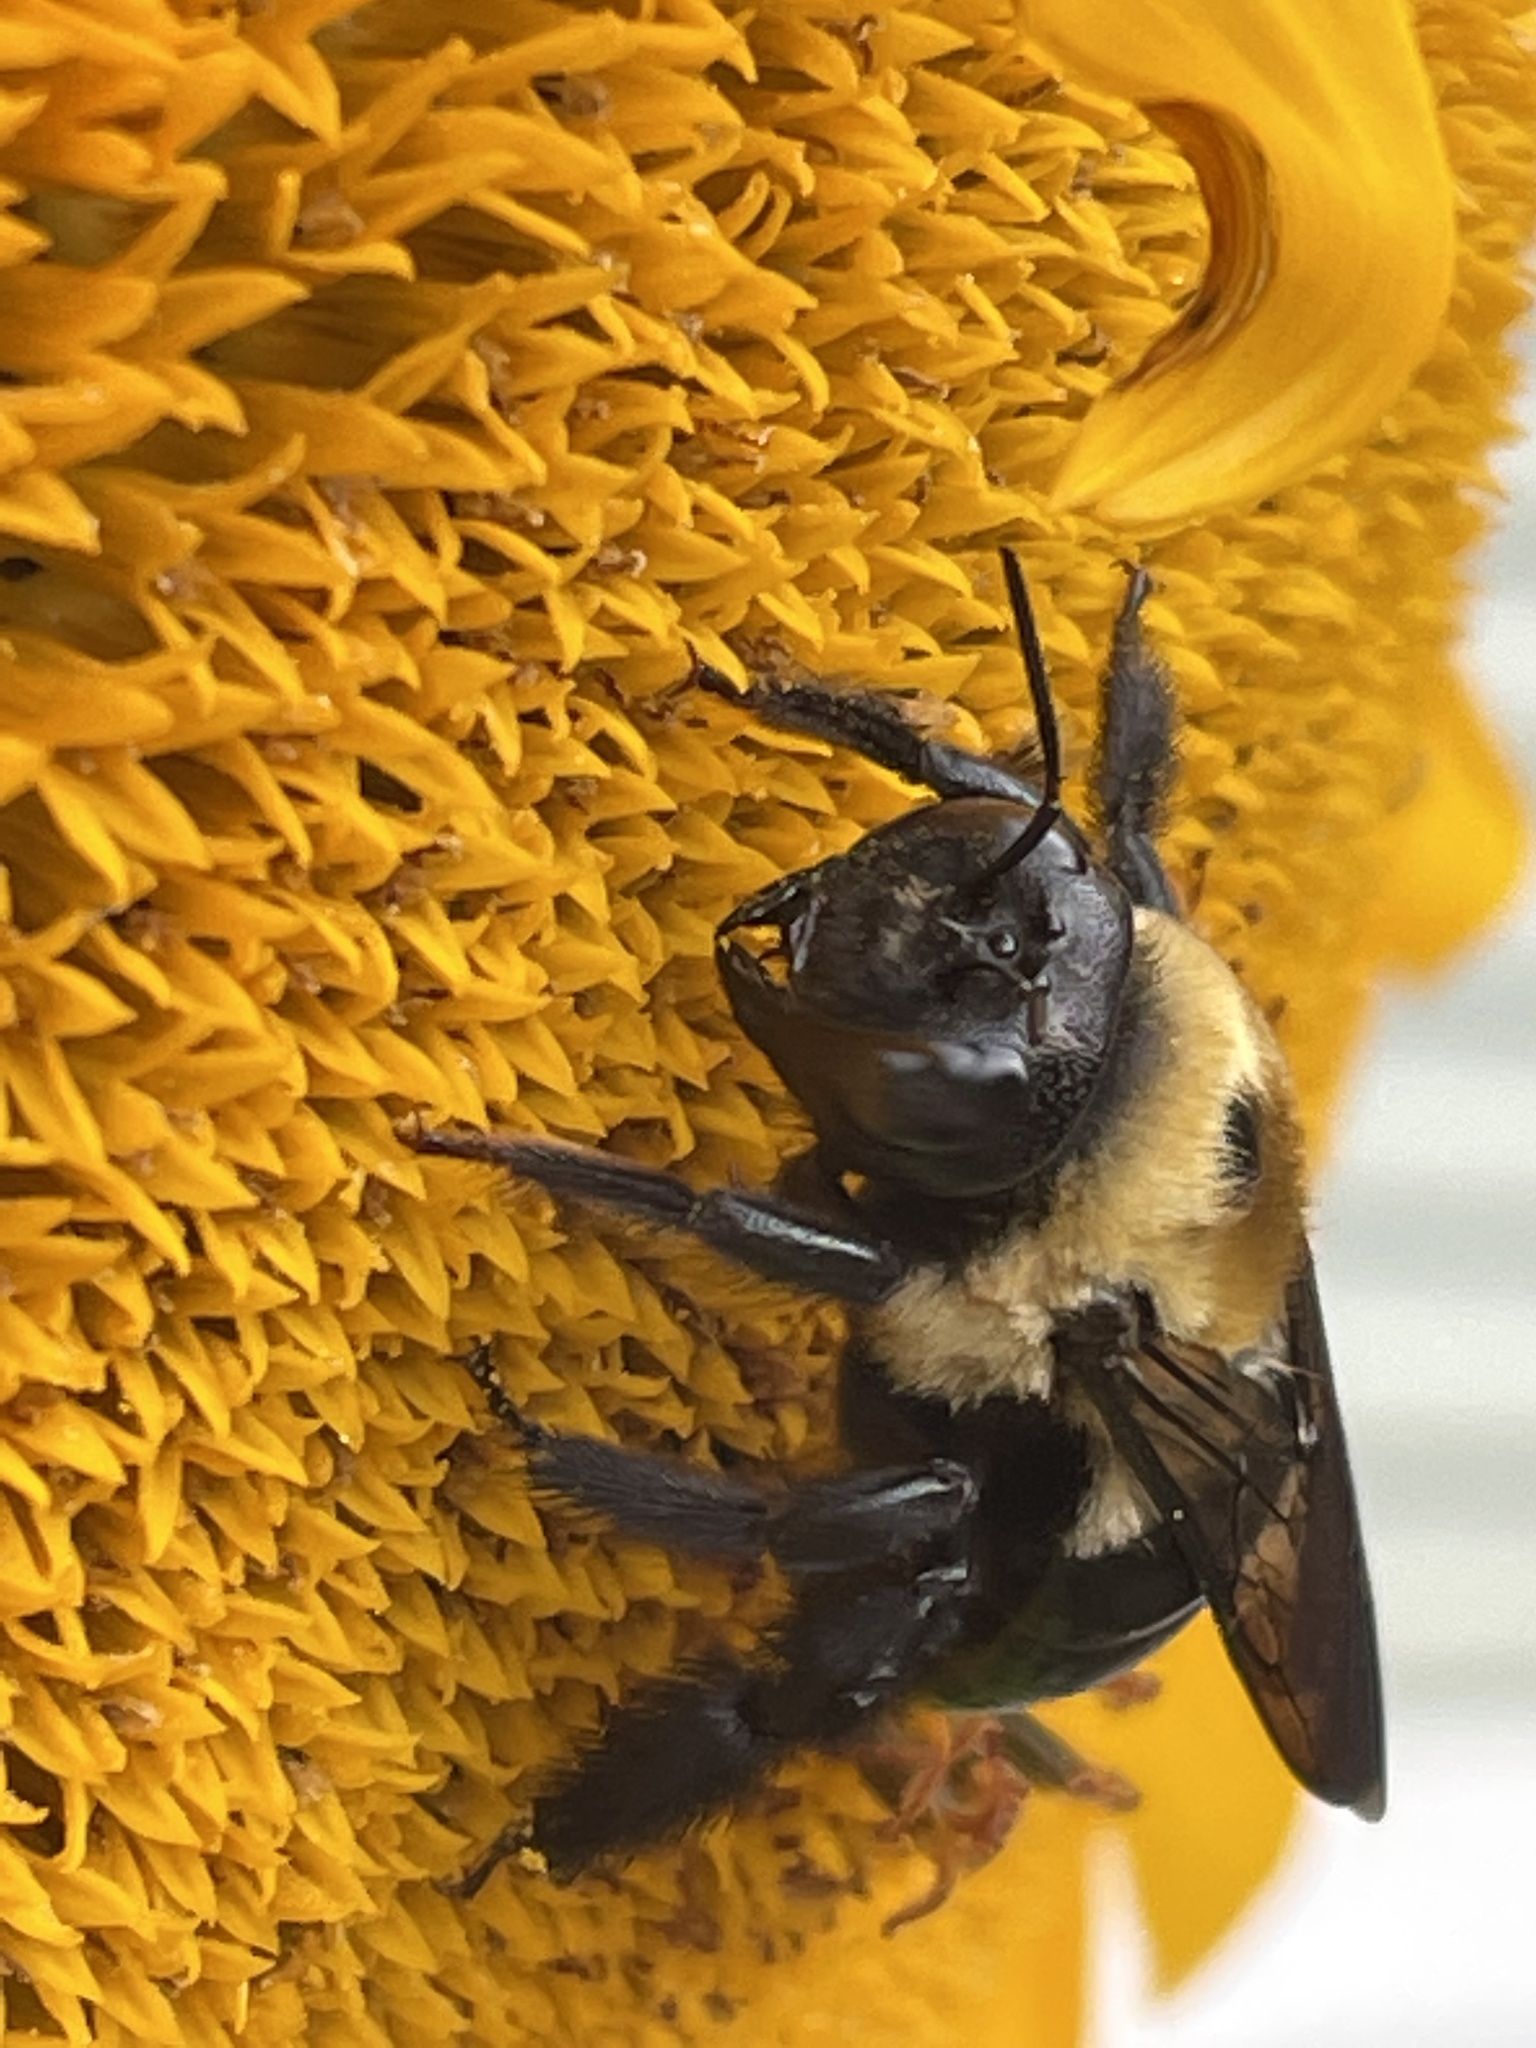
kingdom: Animalia
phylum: Arthropoda
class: Insecta
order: Hymenoptera
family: Apidae
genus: Xylocopa
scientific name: Xylocopa virginica
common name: Carpenter bee
